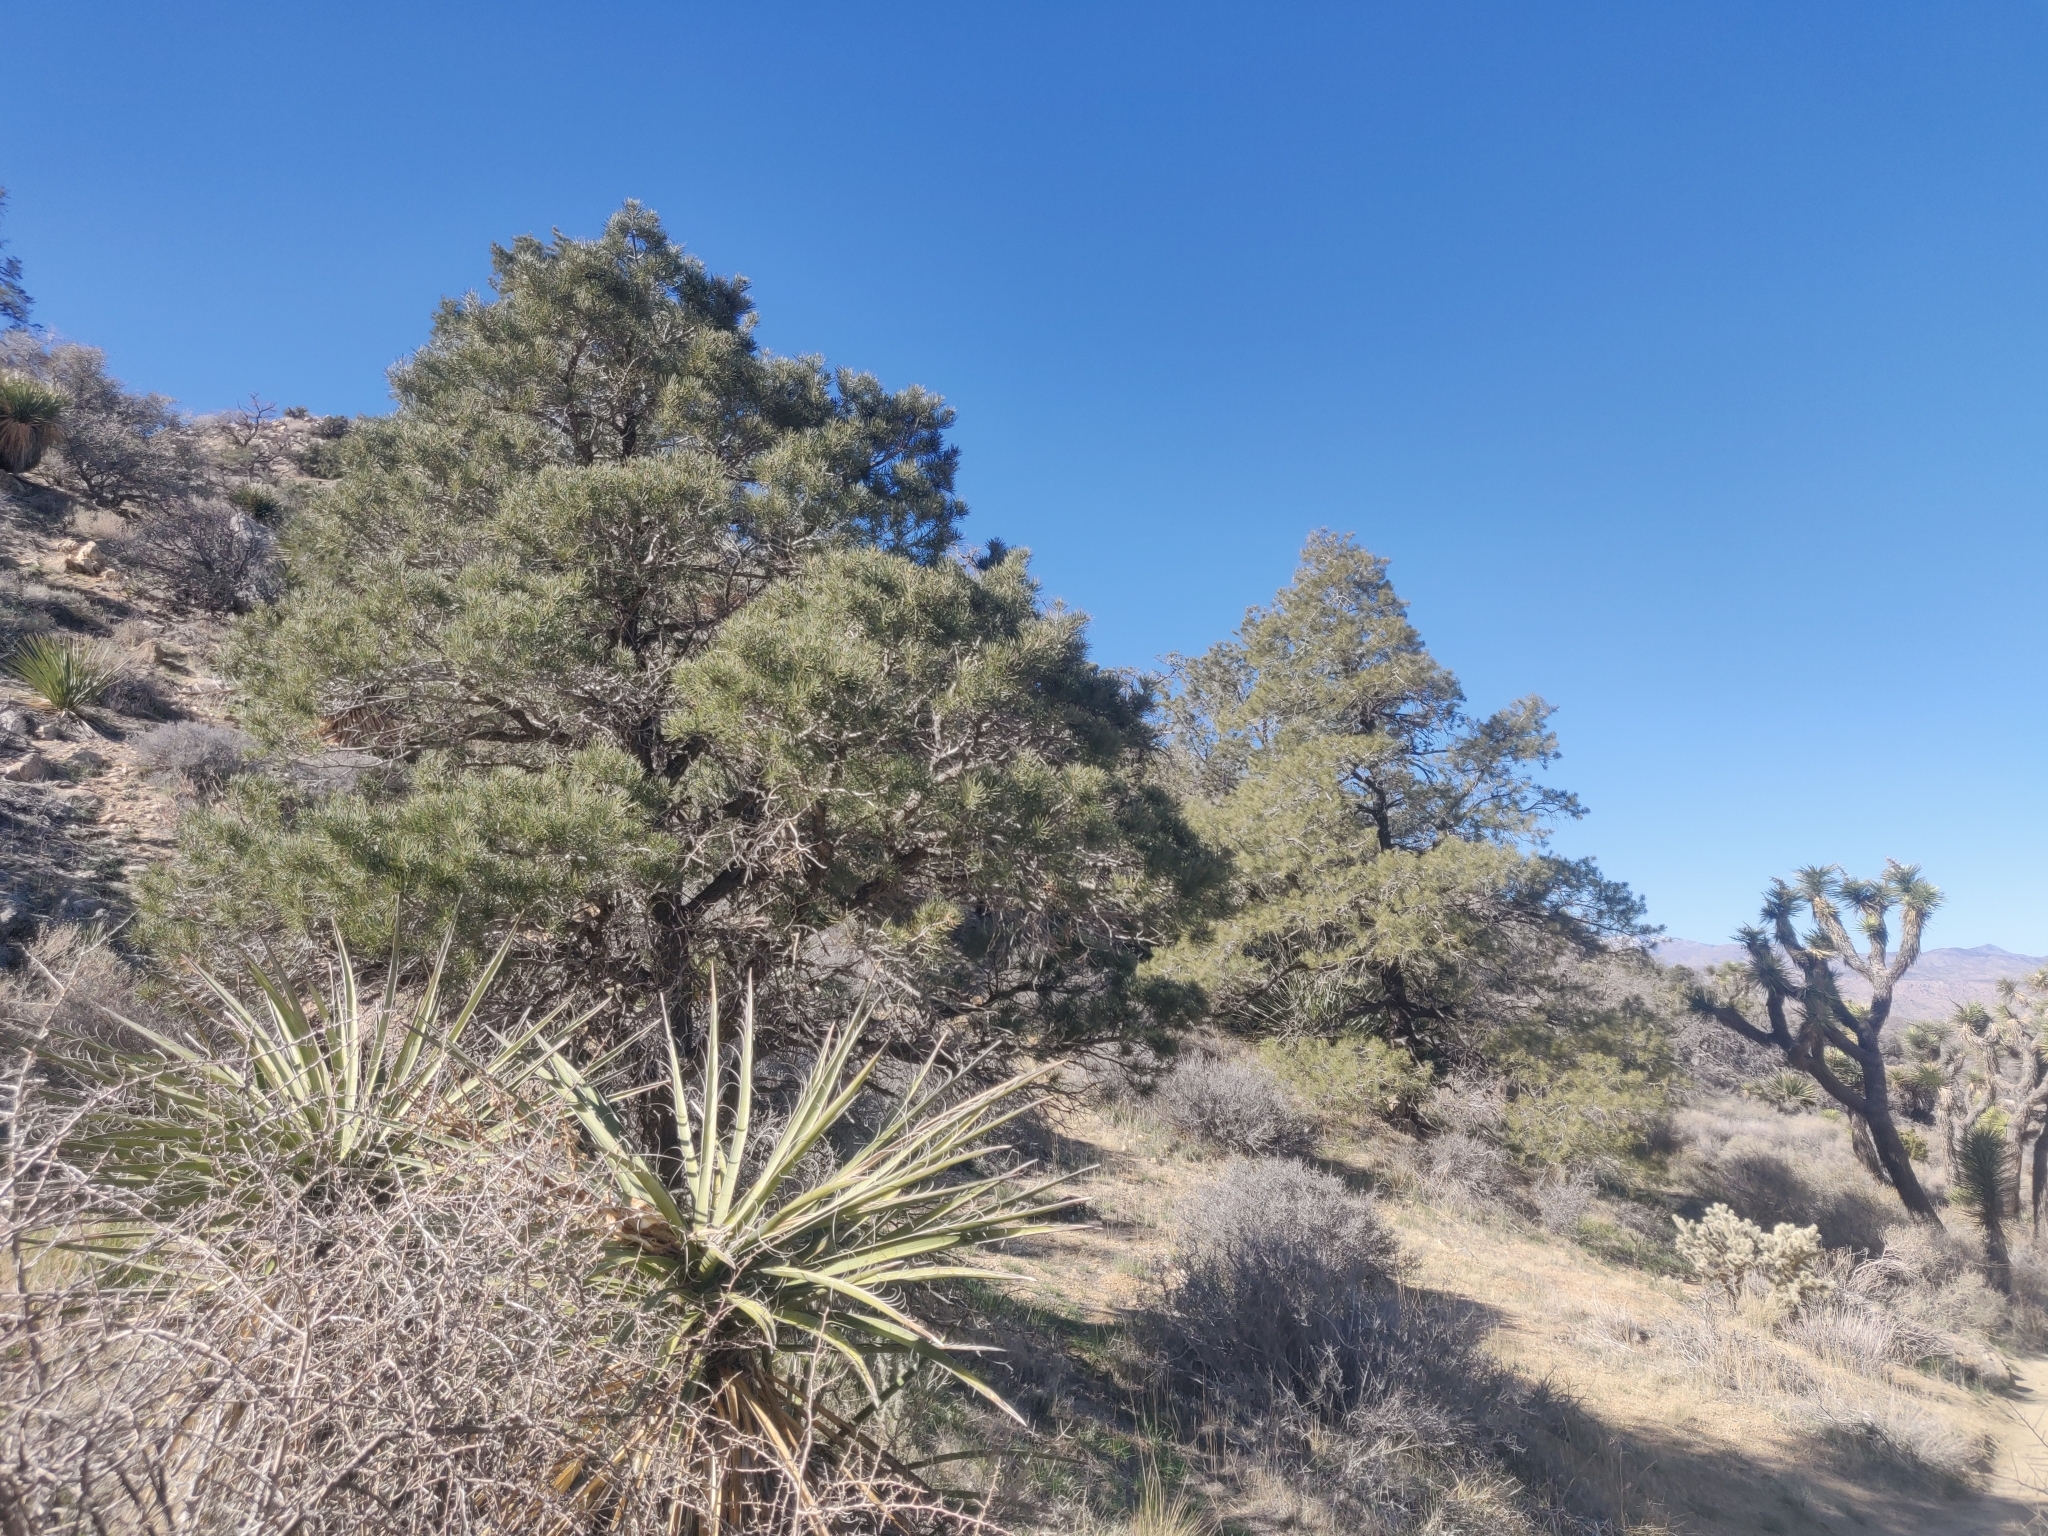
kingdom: Plantae
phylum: Tracheophyta
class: Pinopsida
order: Pinales
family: Pinaceae
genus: Pinus
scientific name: Pinus monophylla
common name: One-leaved nut pine
